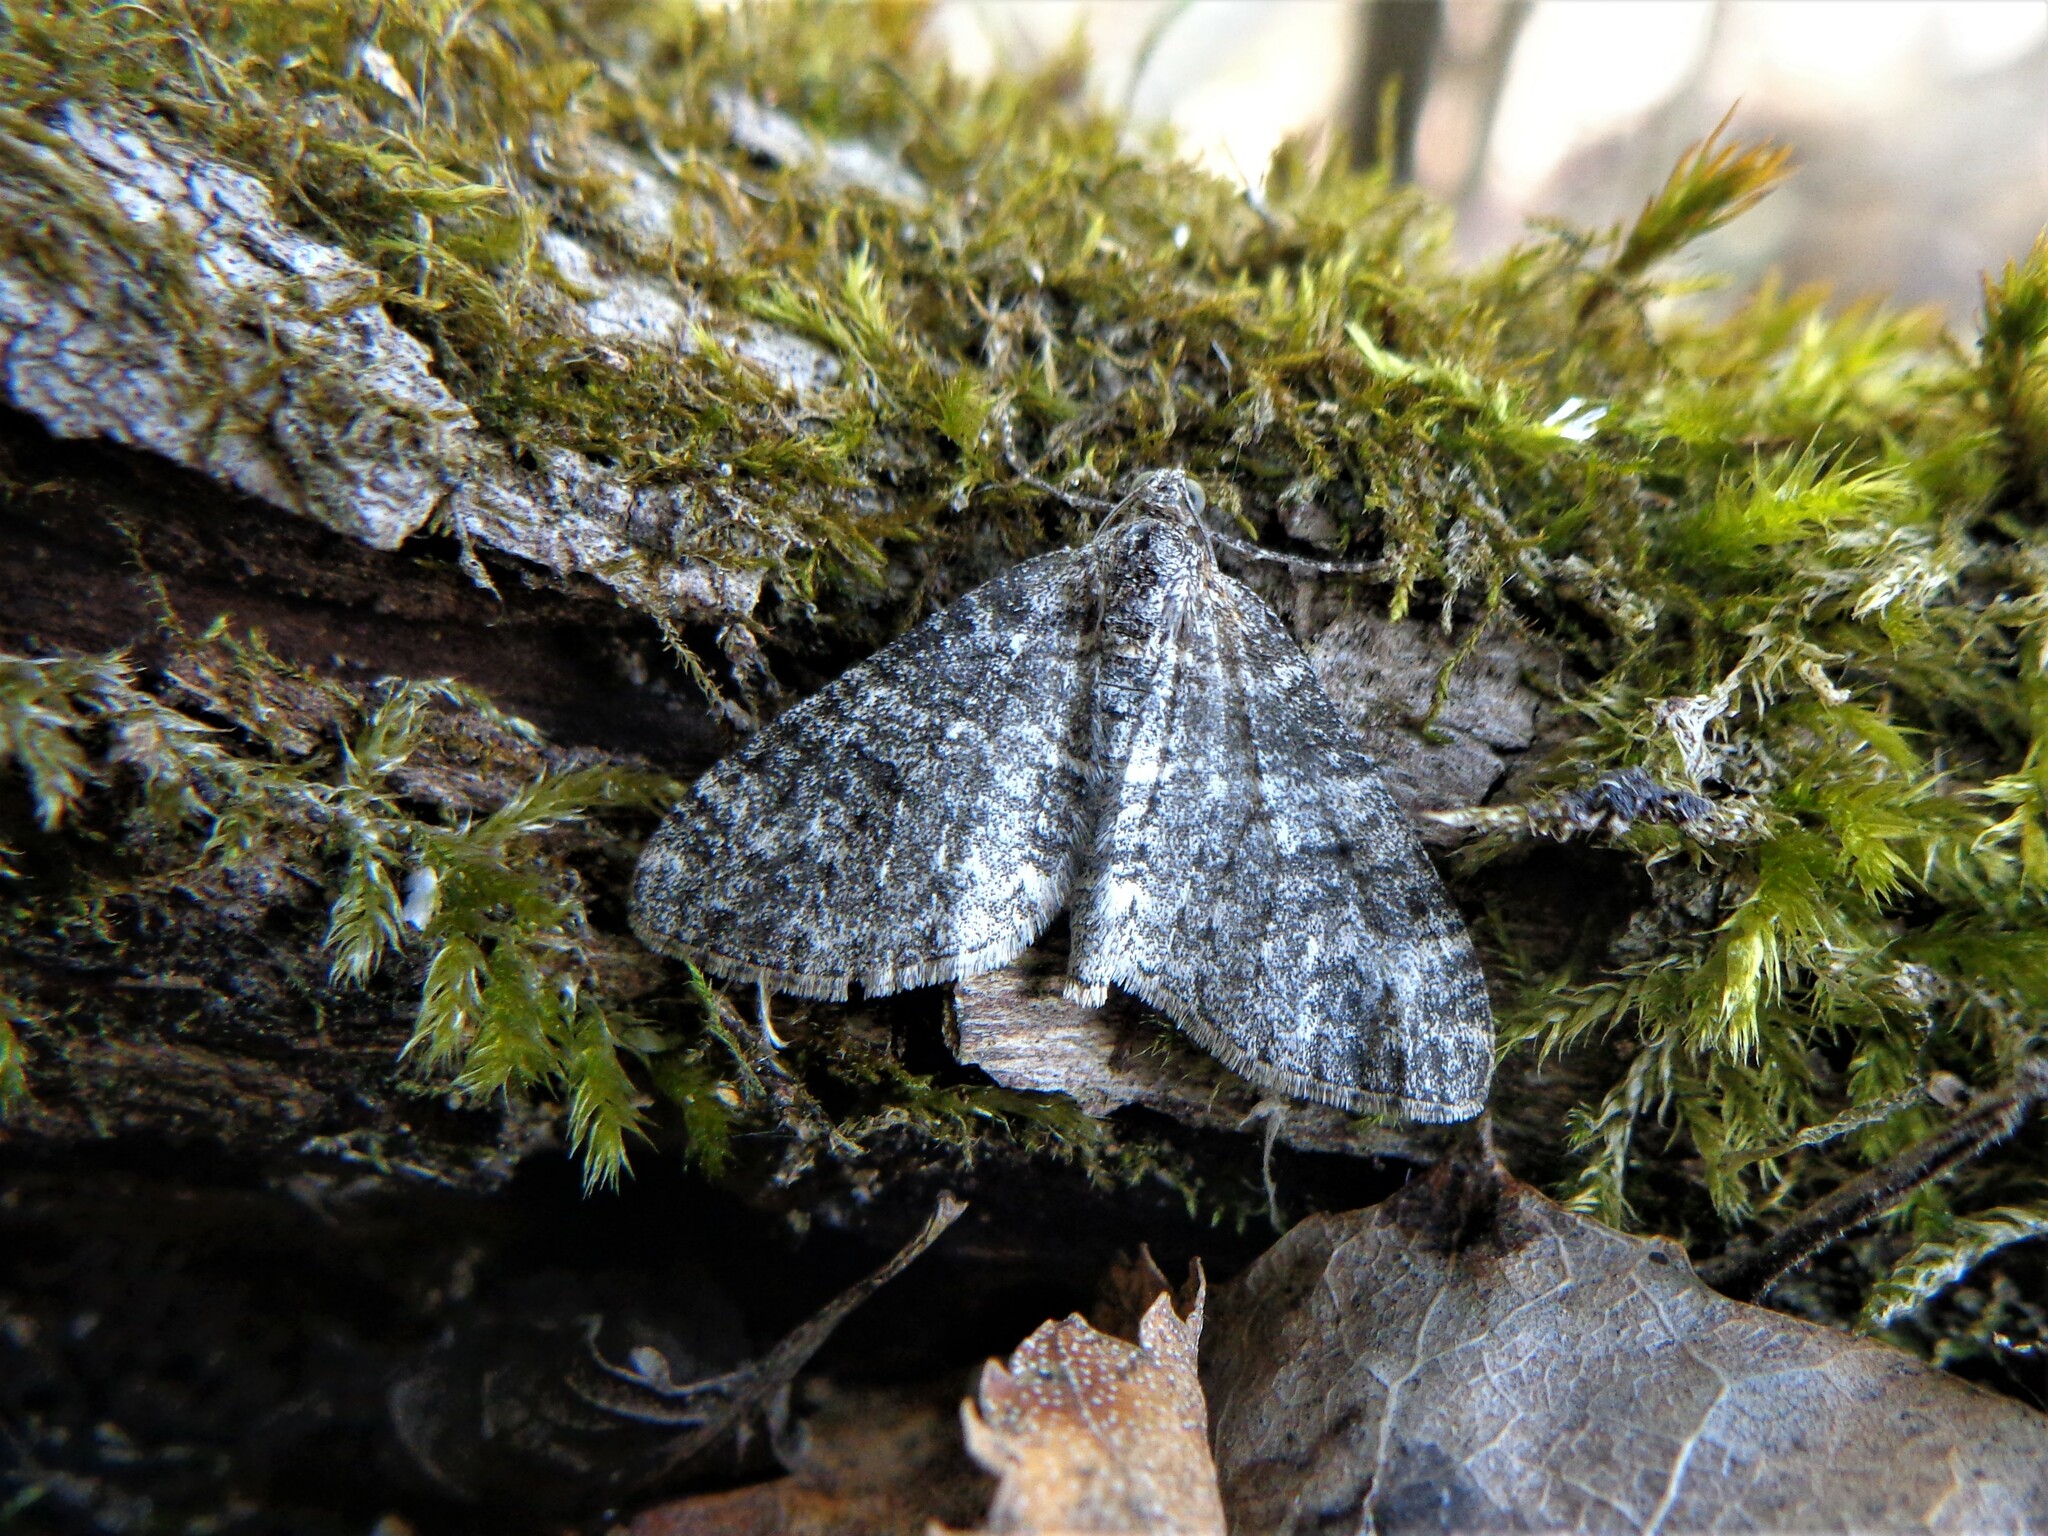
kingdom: Animalia
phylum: Arthropoda
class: Insecta
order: Lepidoptera
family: Geometridae
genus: Lobophora
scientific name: Lobophora halterata
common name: Seraphim
